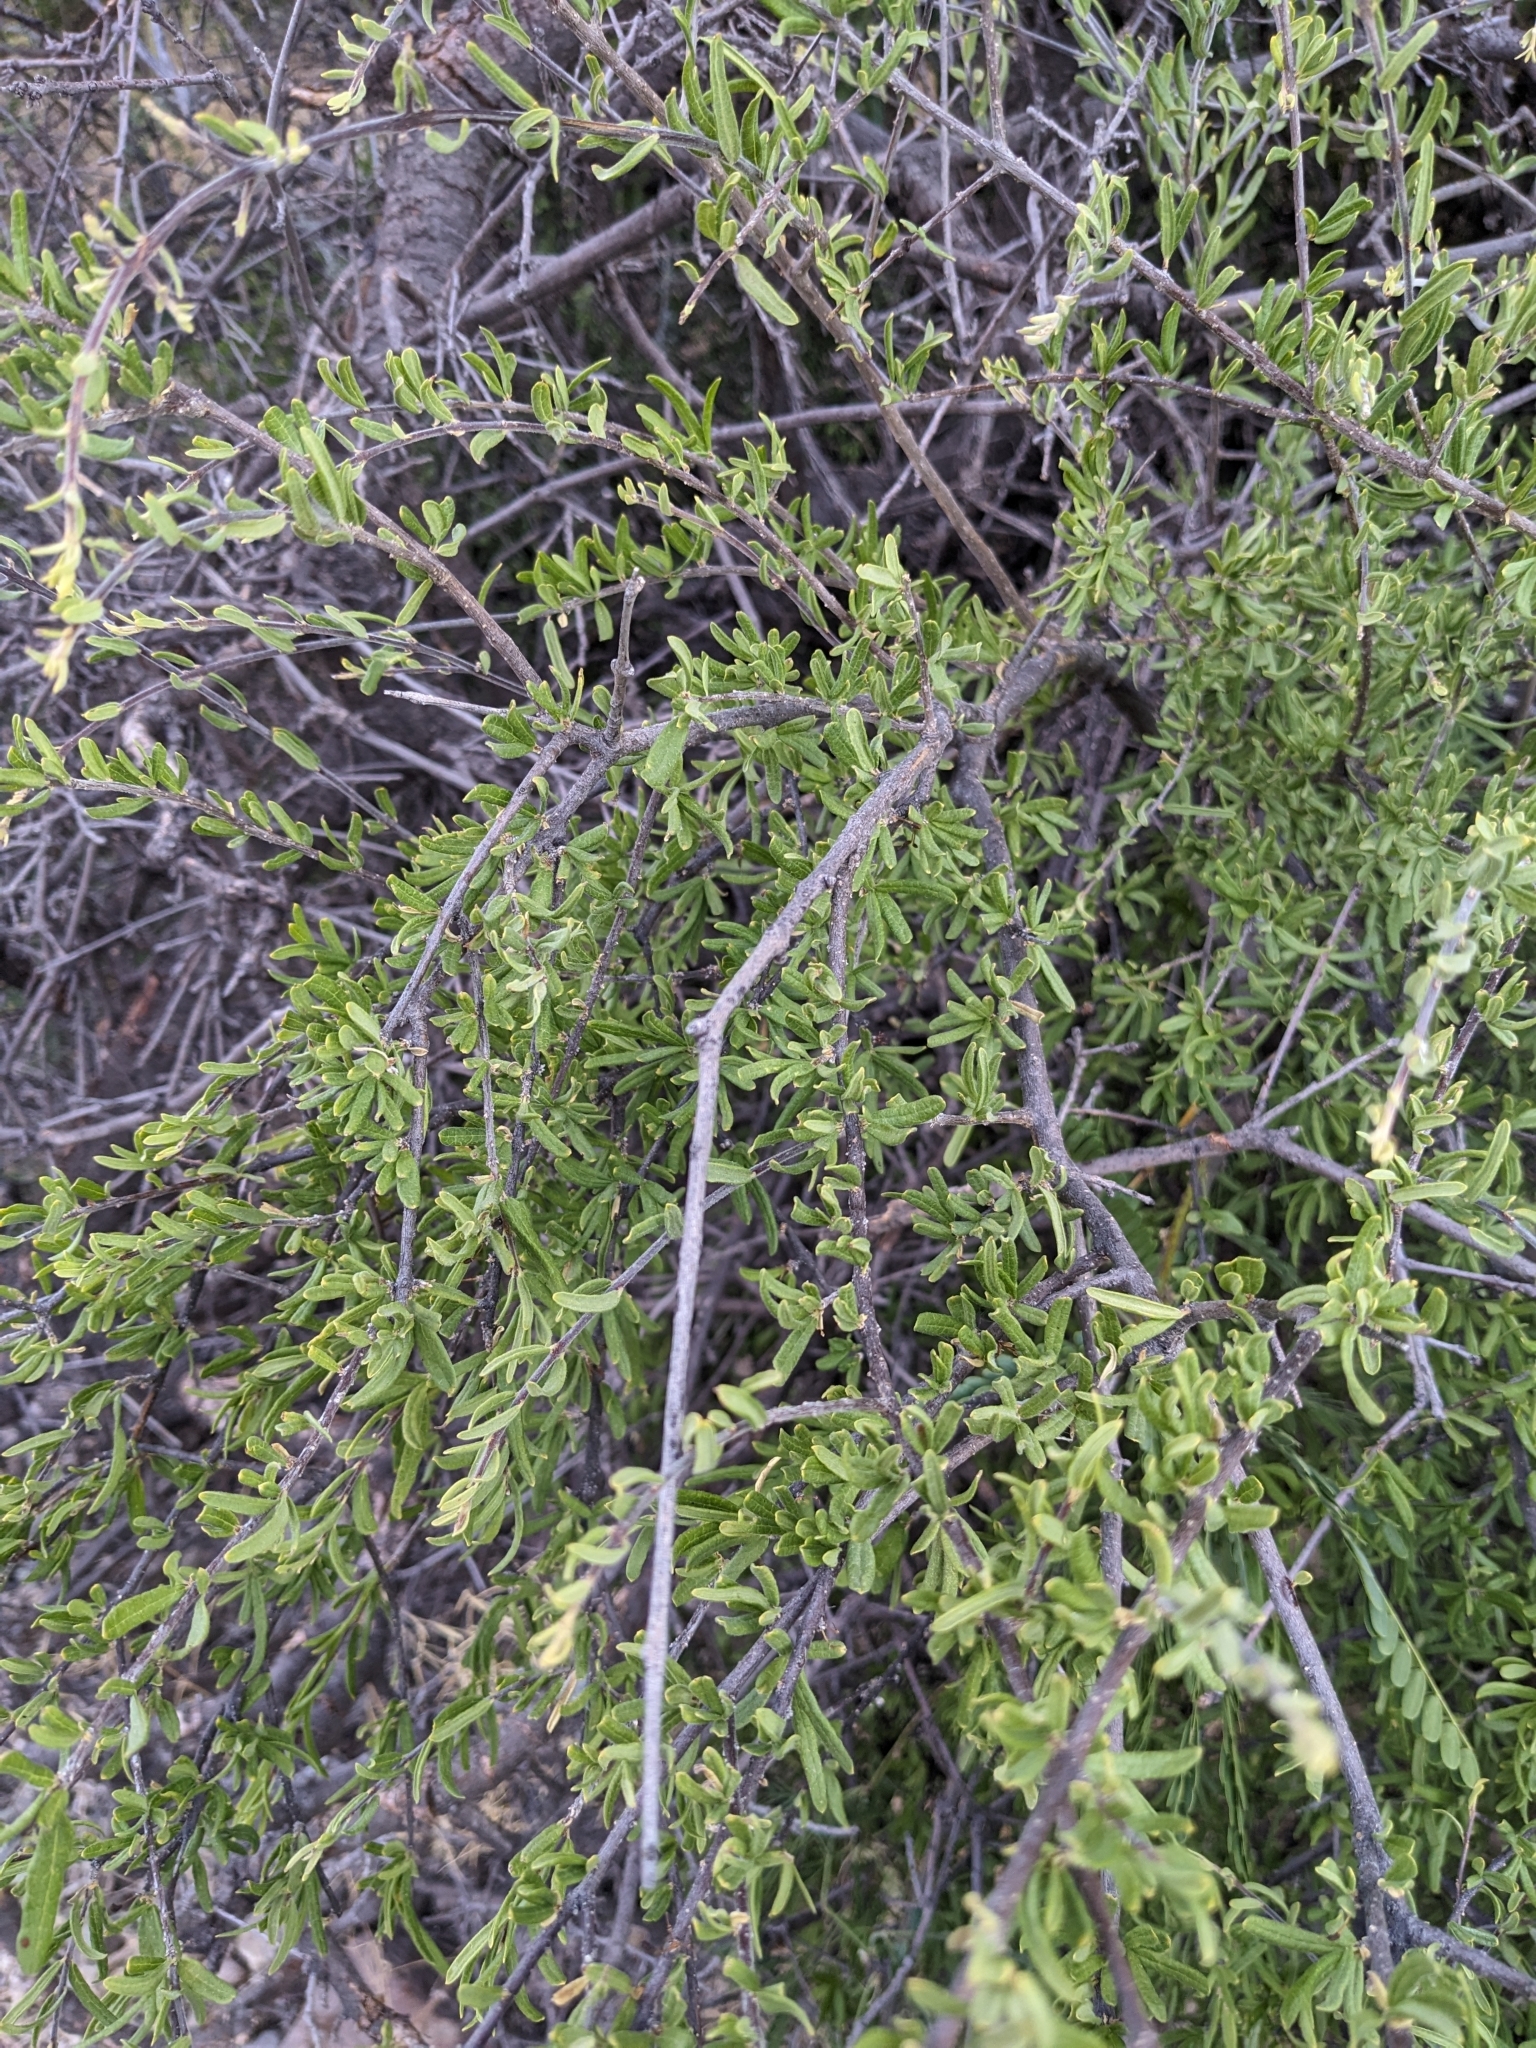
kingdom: Plantae
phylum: Tracheophyta
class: Magnoliopsida
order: Lamiales
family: Oleaceae
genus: Forestiera
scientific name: Forestiera shrevei
